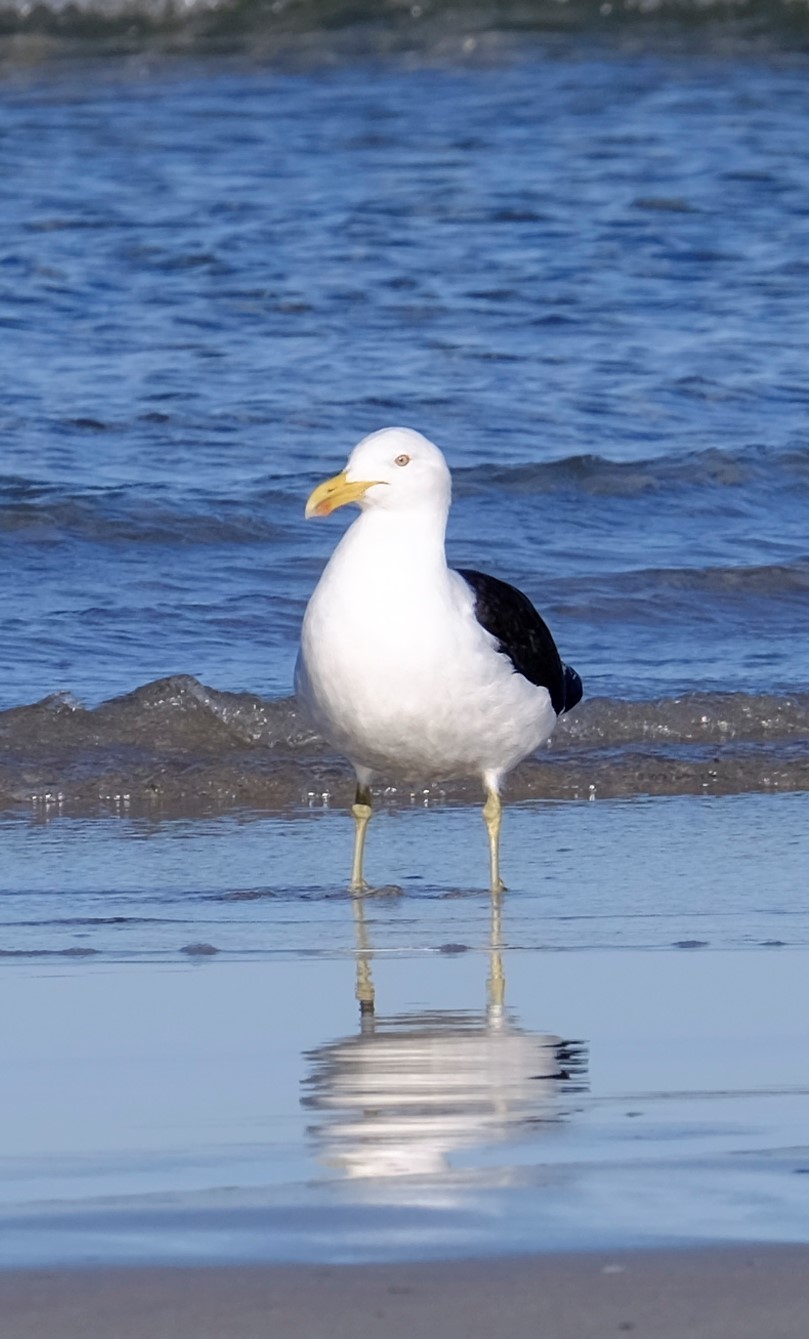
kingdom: Animalia
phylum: Chordata
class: Aves
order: Charadriiformes
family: Laridae
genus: Larus
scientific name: Larus dominicanus
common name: Kelp gull
